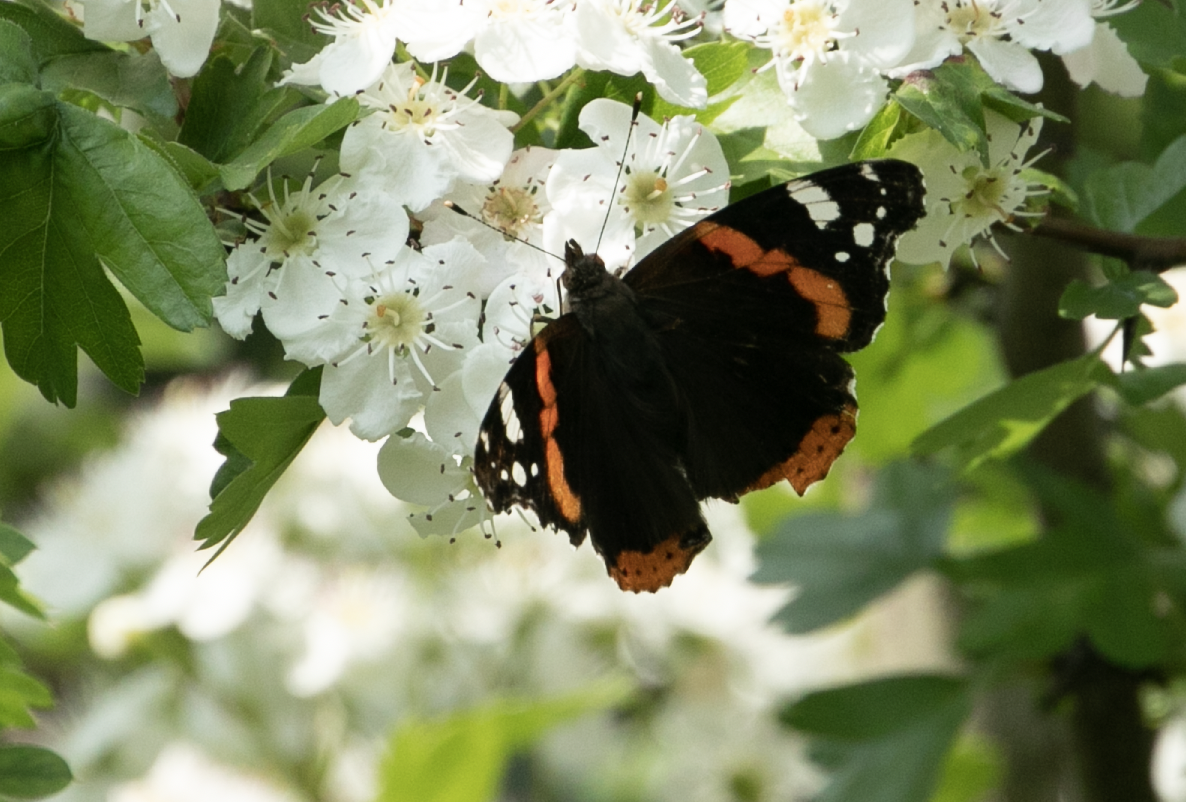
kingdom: Animalia
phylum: Arthropoda
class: Insecta
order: Lepidoptera
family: Nymphalidae
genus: Vanessa
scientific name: Vanessa atalanta
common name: Red admiral
